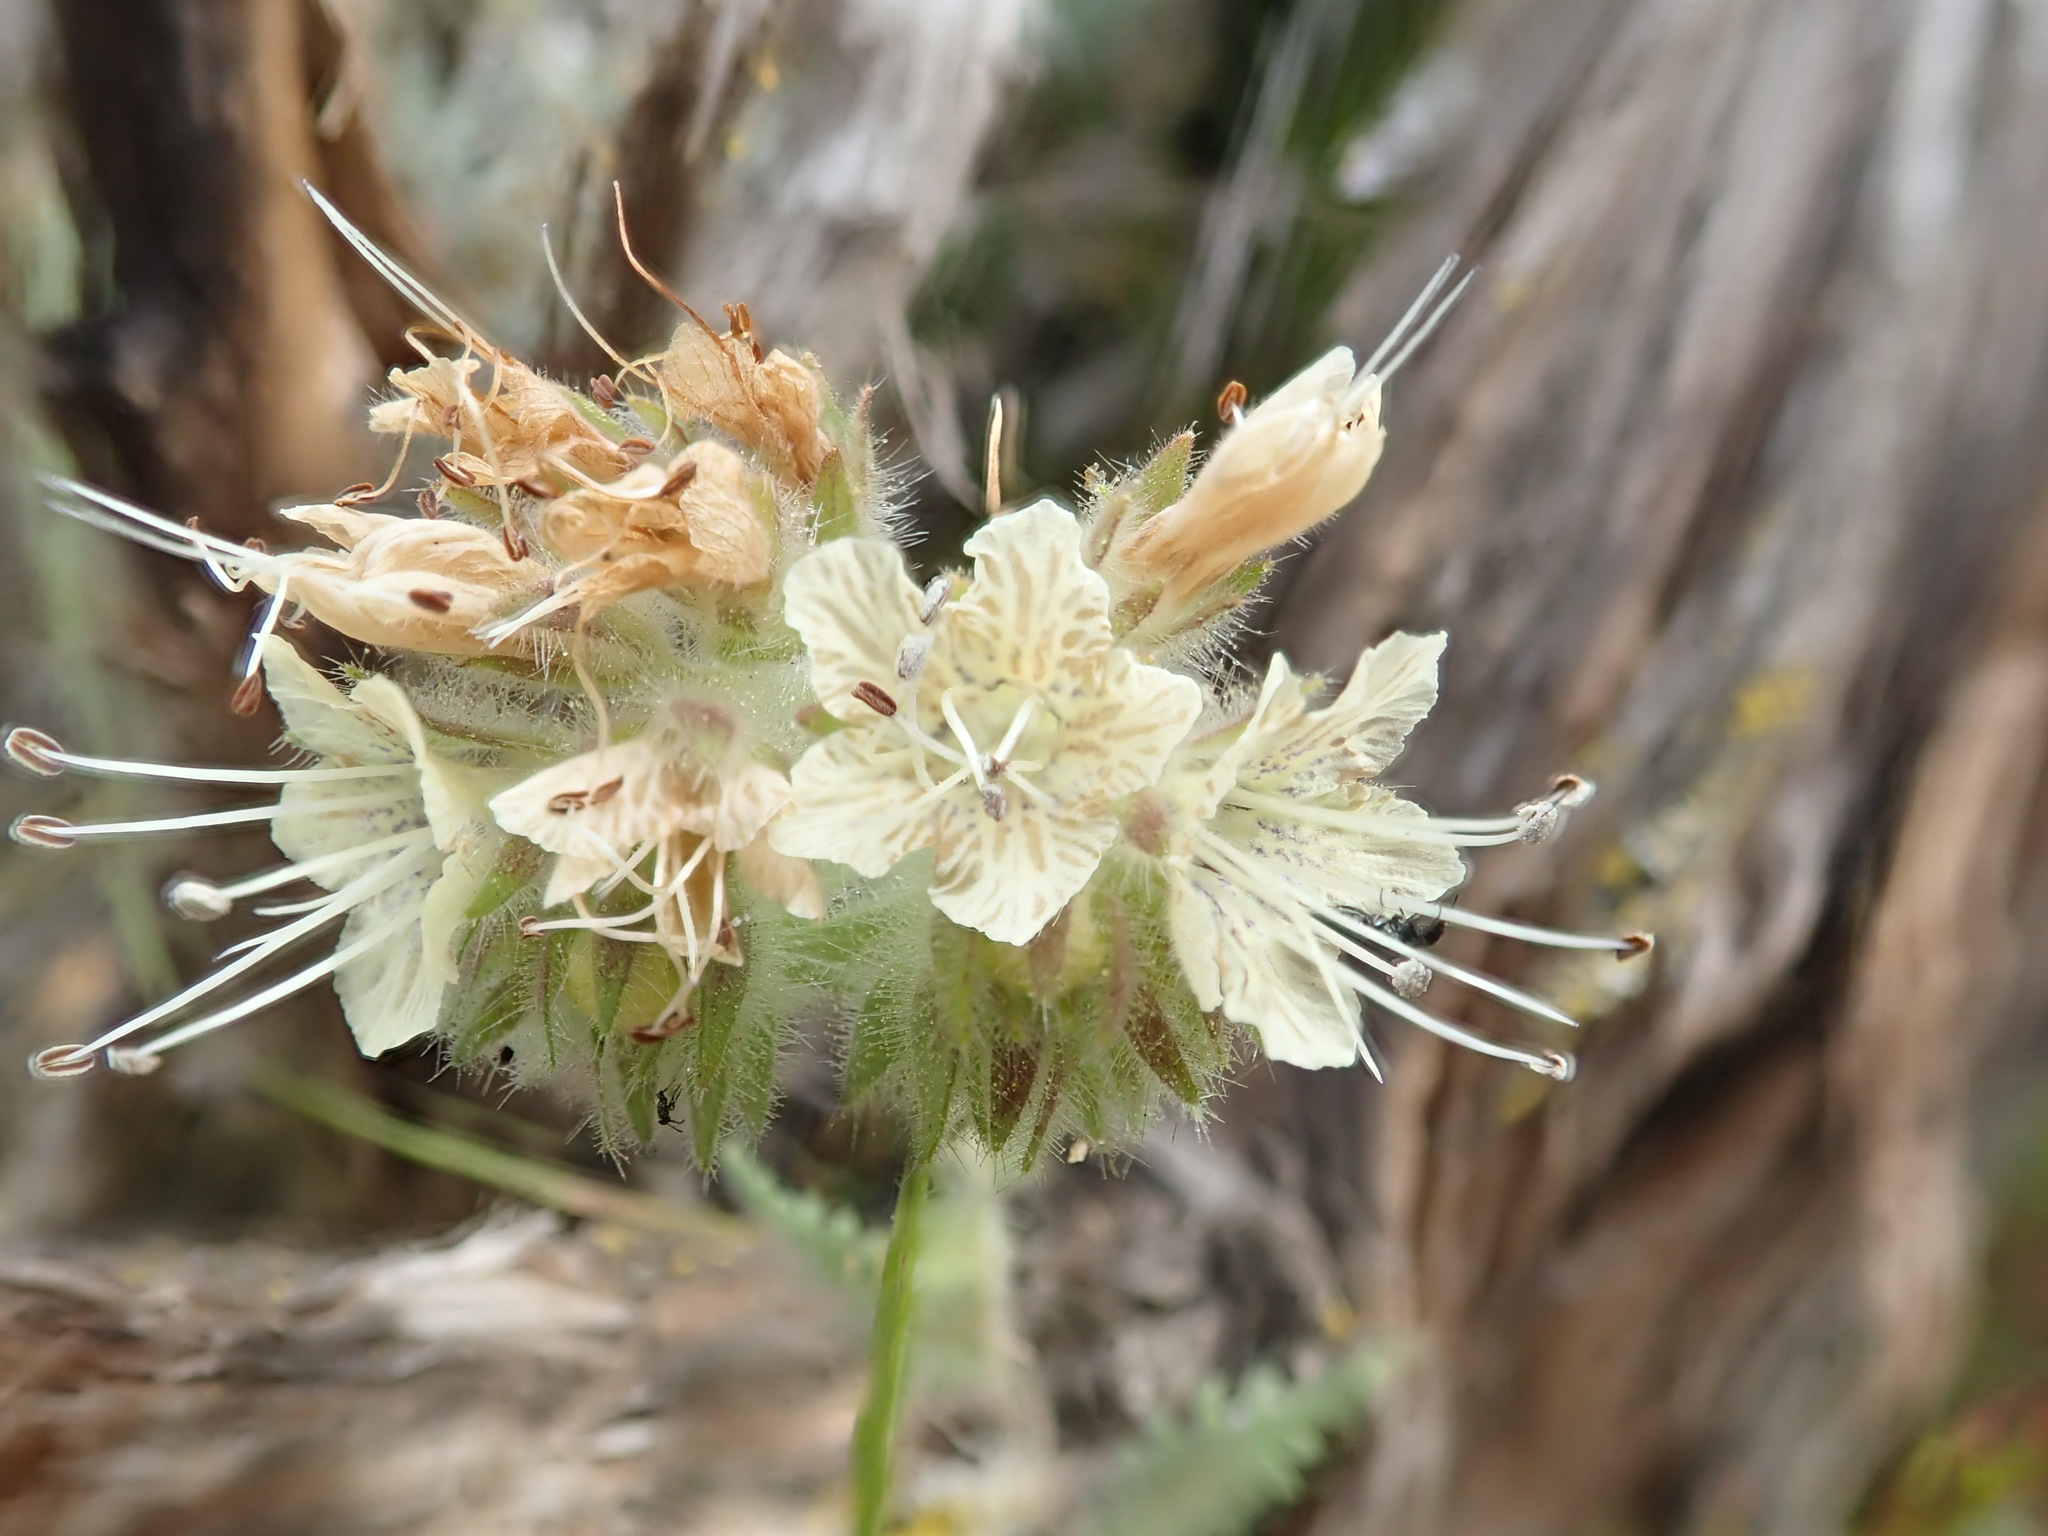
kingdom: Plantae
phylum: Tracheophyta
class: Magnoliopsida
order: Boraginales
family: Hydrophyllaceae
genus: Phacelia
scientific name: Phacelia distans
